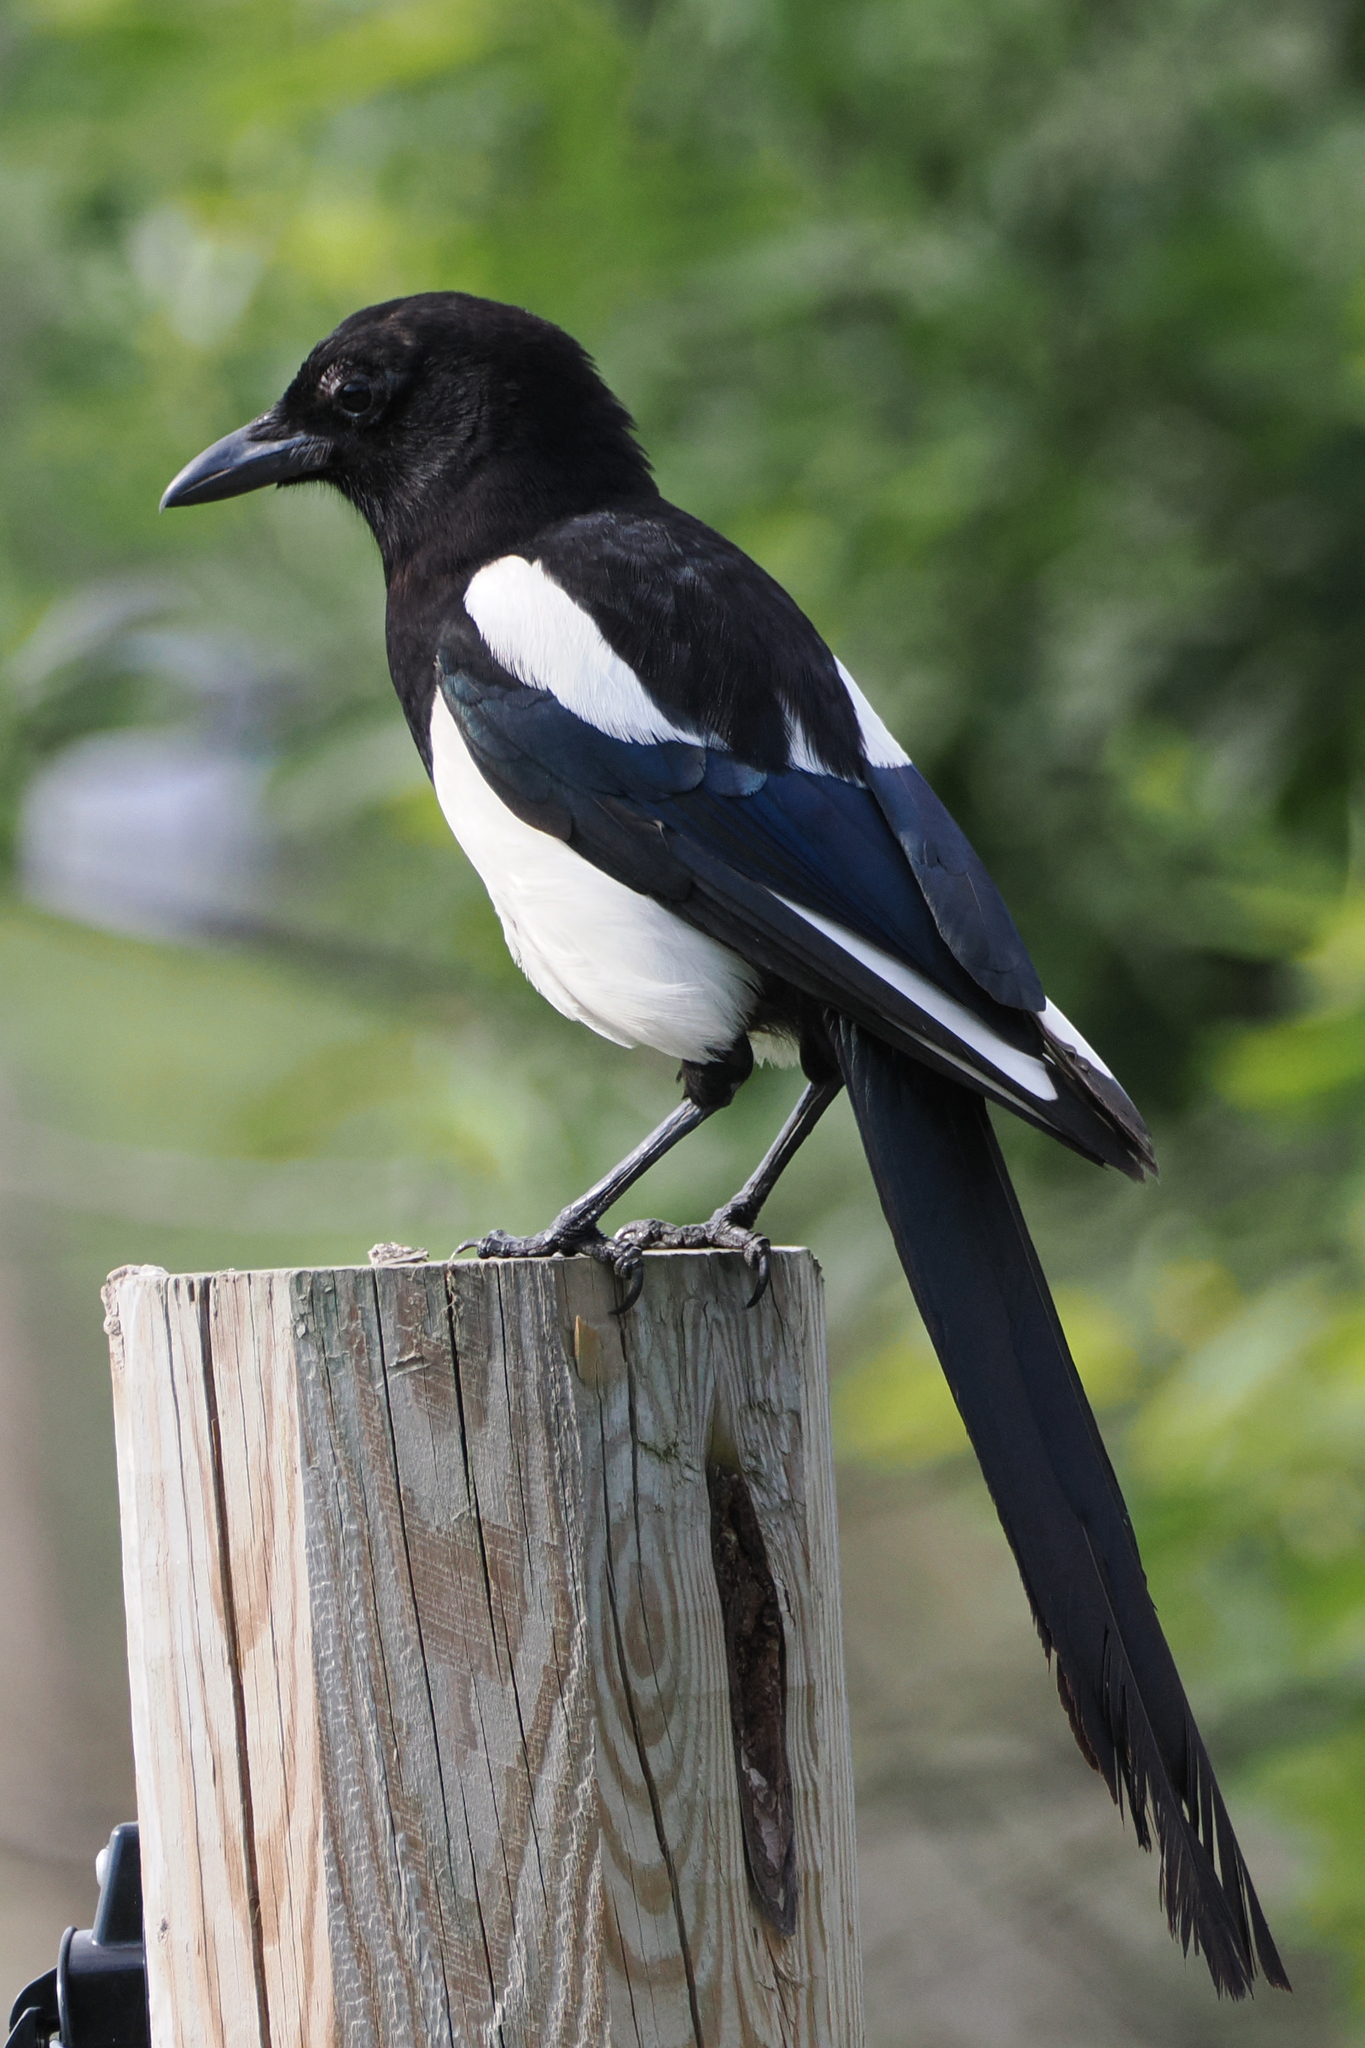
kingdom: Animalia
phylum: Chordata
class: Aves
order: Passeriformes
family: Corvidae
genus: Pica
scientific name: Pica pica
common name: Eurasian magpie
